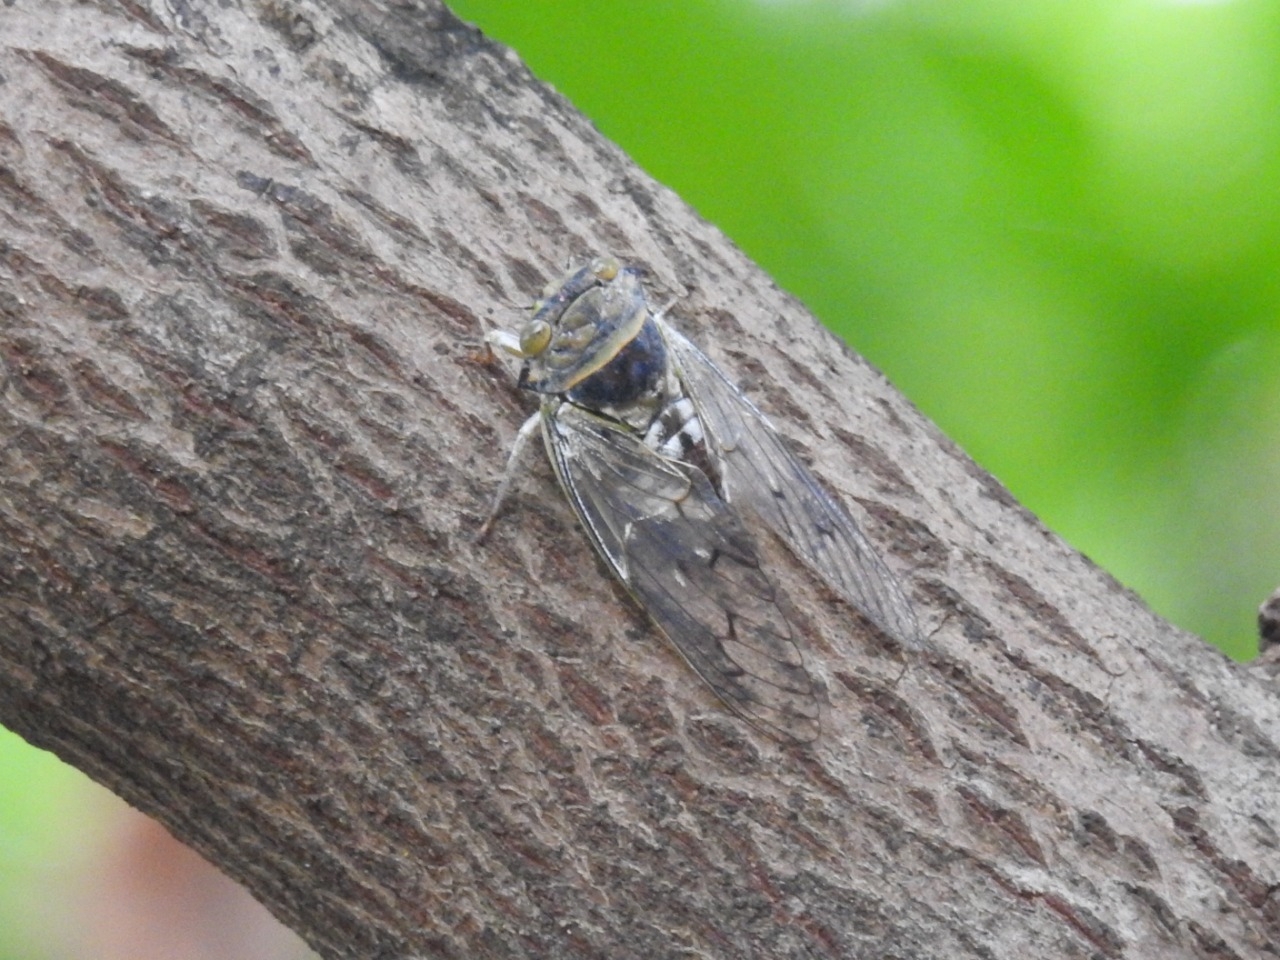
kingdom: Animalia
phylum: Arthropoda
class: Insecta
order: Hemiptera
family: Cicadidae
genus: Platypleura
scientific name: Platypleura canescens
